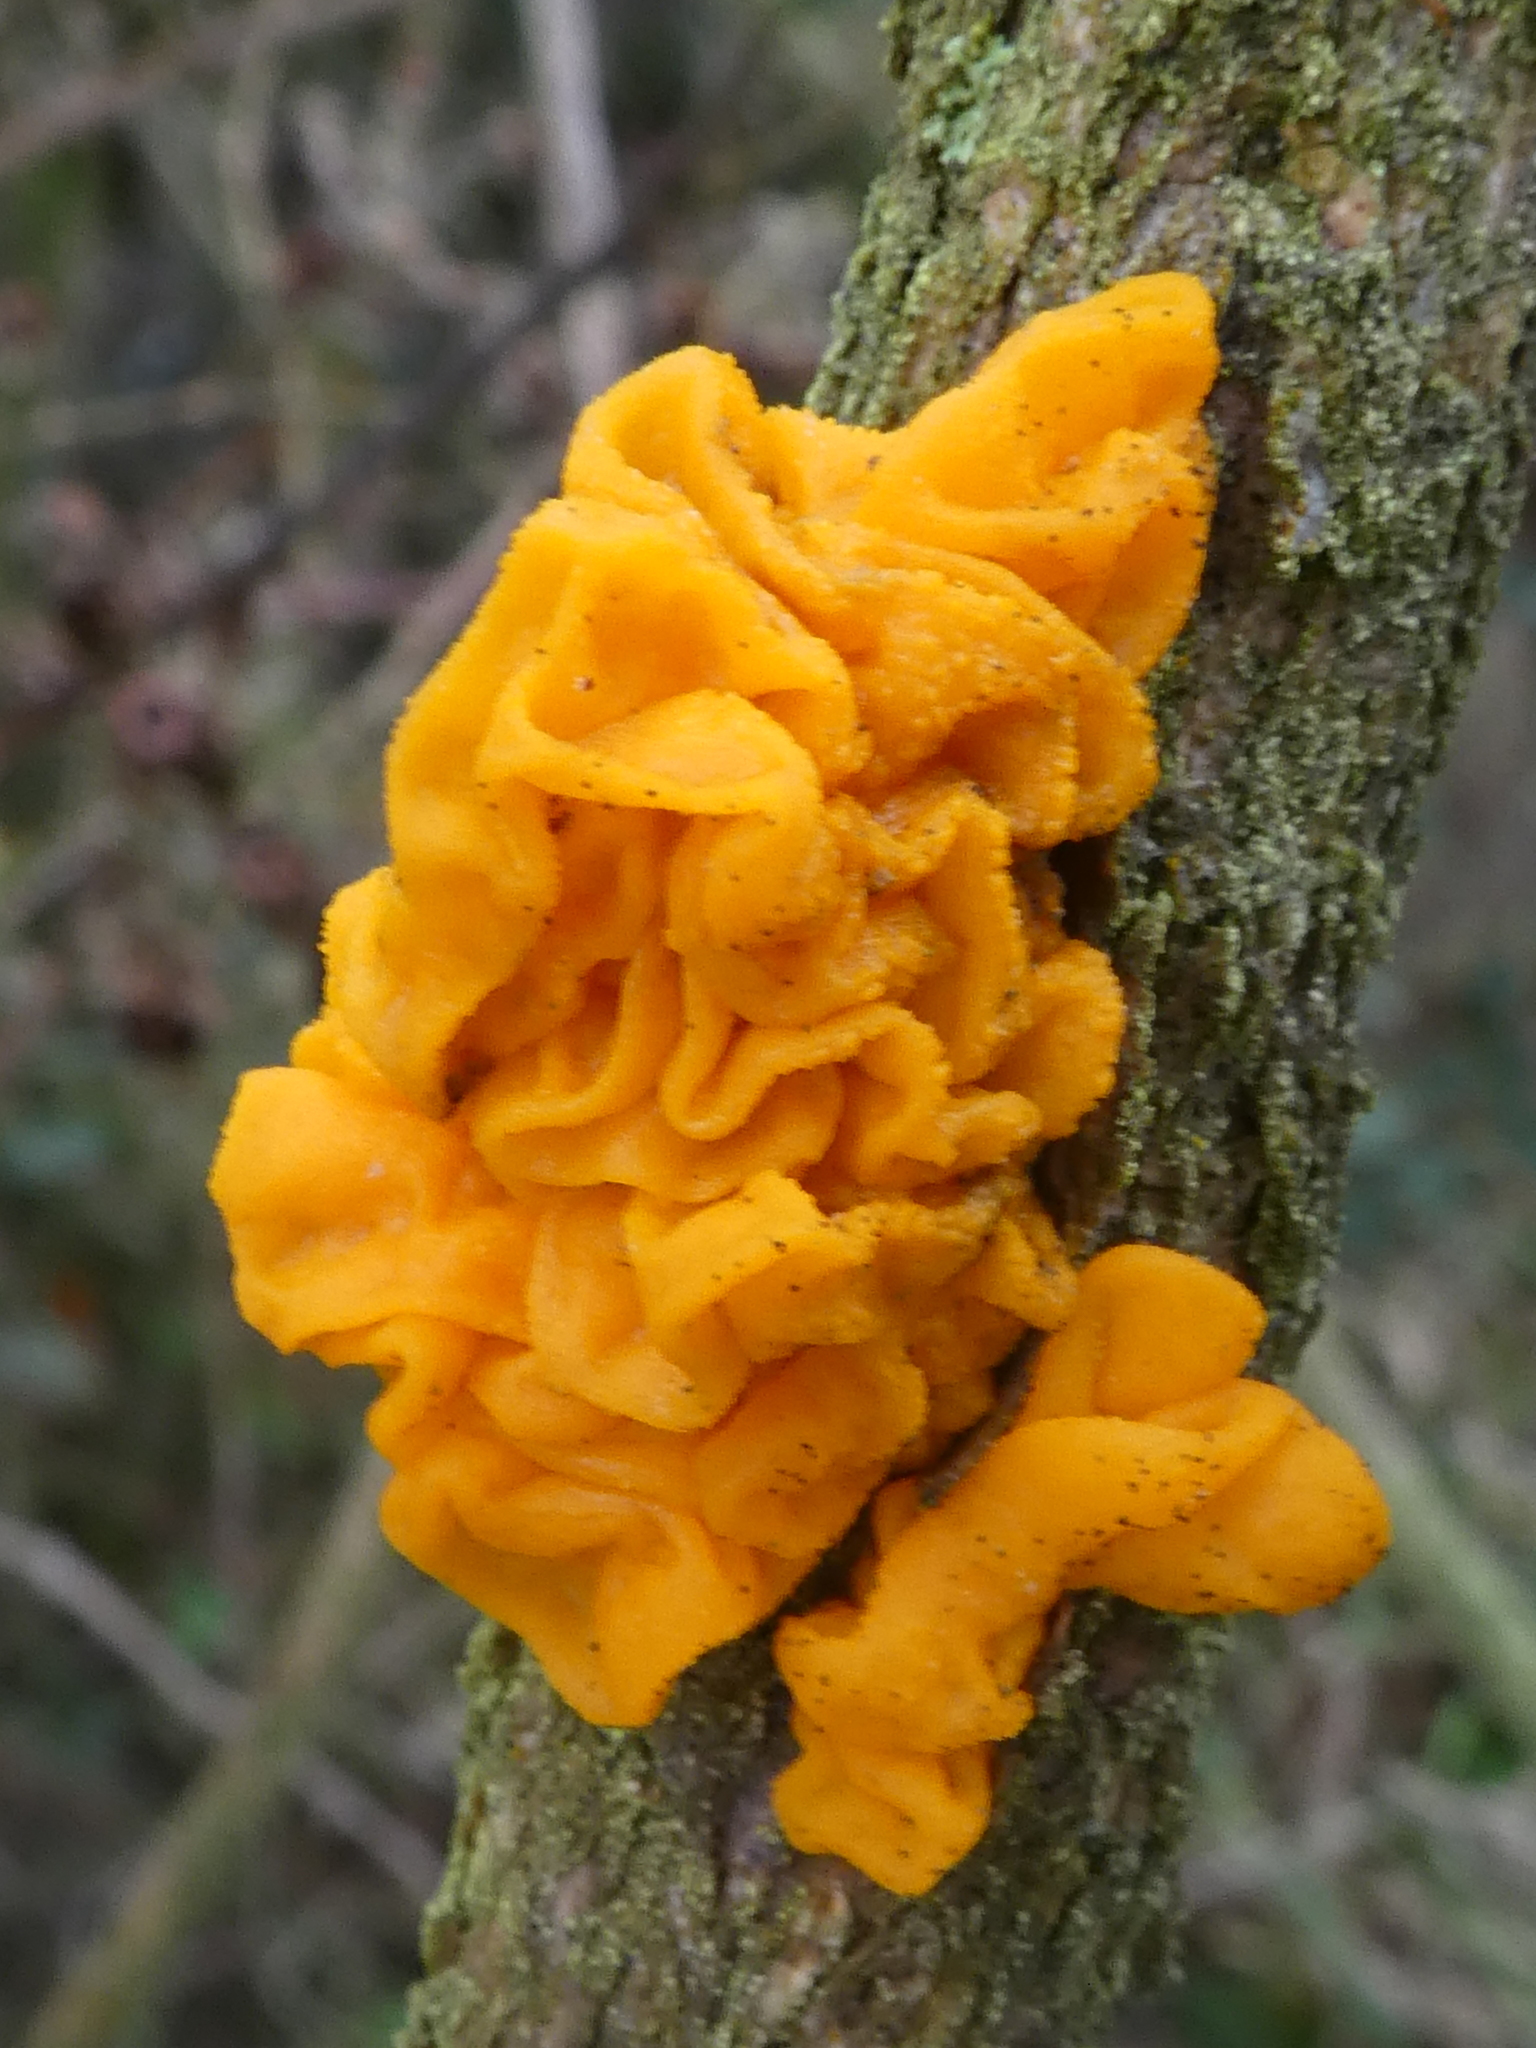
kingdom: Fungi
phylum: Basidiomycota
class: Tremellomycetes
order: Tremellales
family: Tremellaceae
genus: Tremella
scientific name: Tremella mesenterica
